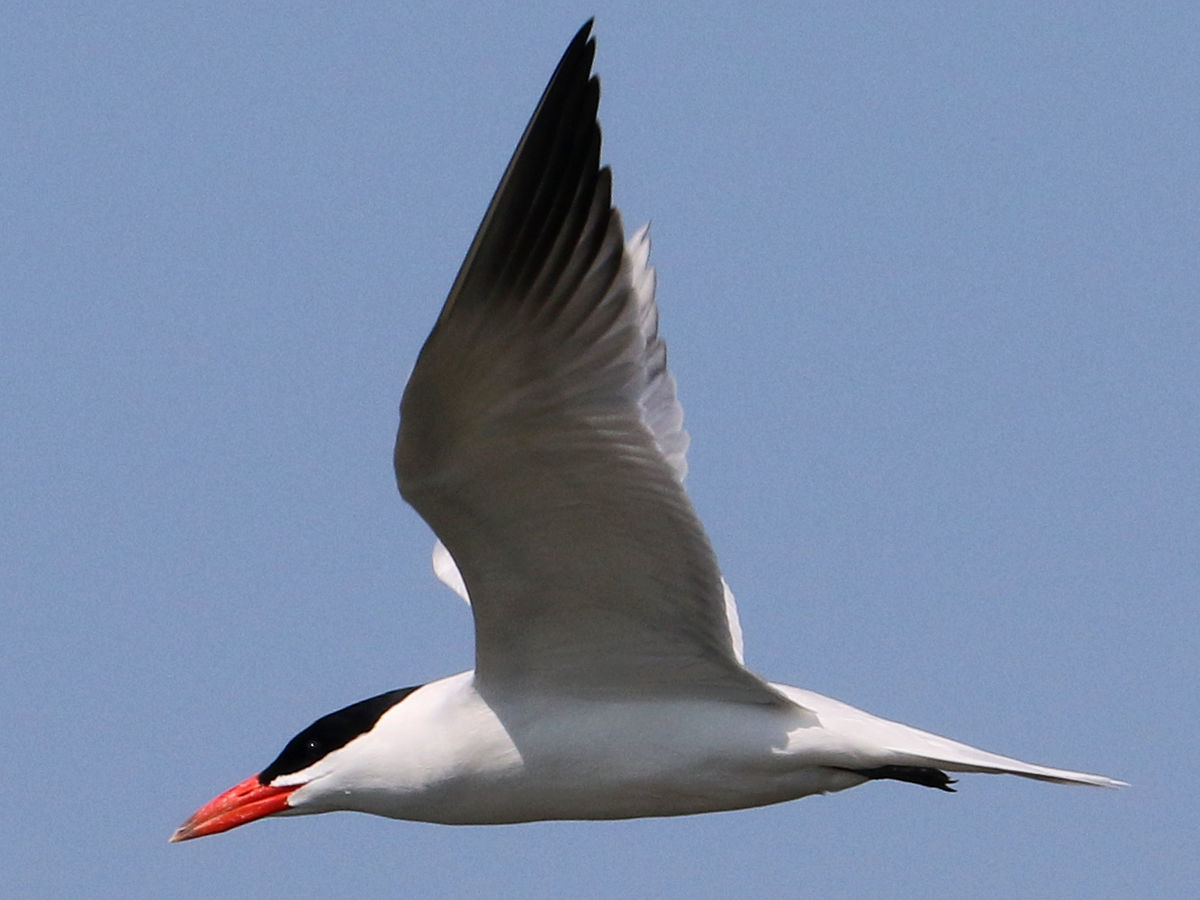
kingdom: Animalia
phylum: Chordata
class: Aves
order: Charadriiformes
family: Laridae
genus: Hydroprogne
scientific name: Hydroprogne caspia
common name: Caspian tern
